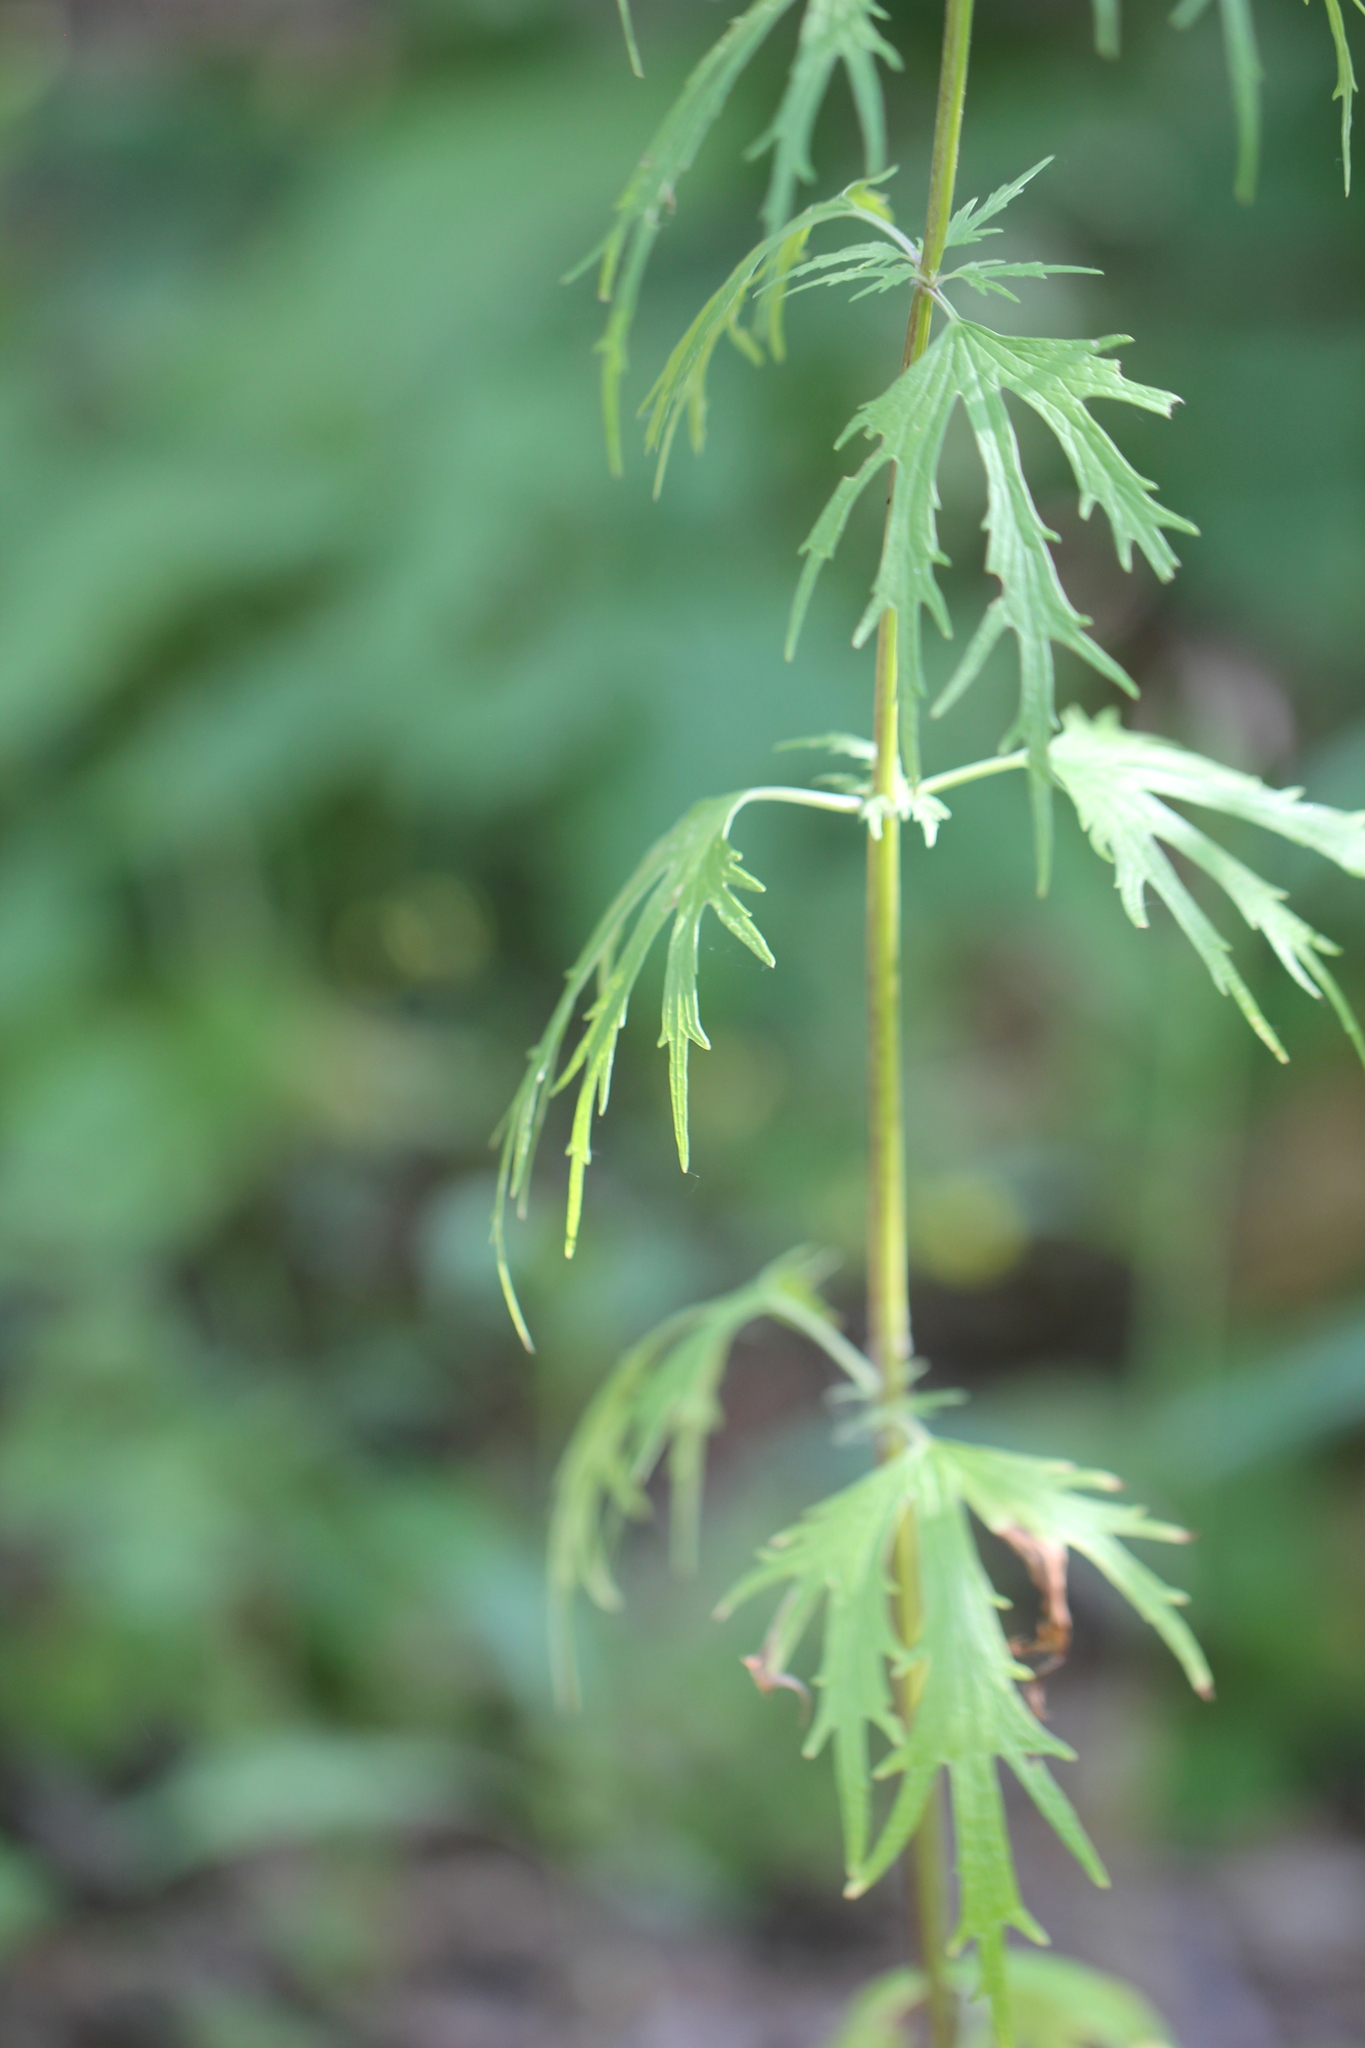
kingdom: Plantae
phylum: Tracheophyta
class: Magnoliopsida
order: Lamiales
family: Lamiaceae
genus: Leonurus
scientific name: Leonurus glaucescens
